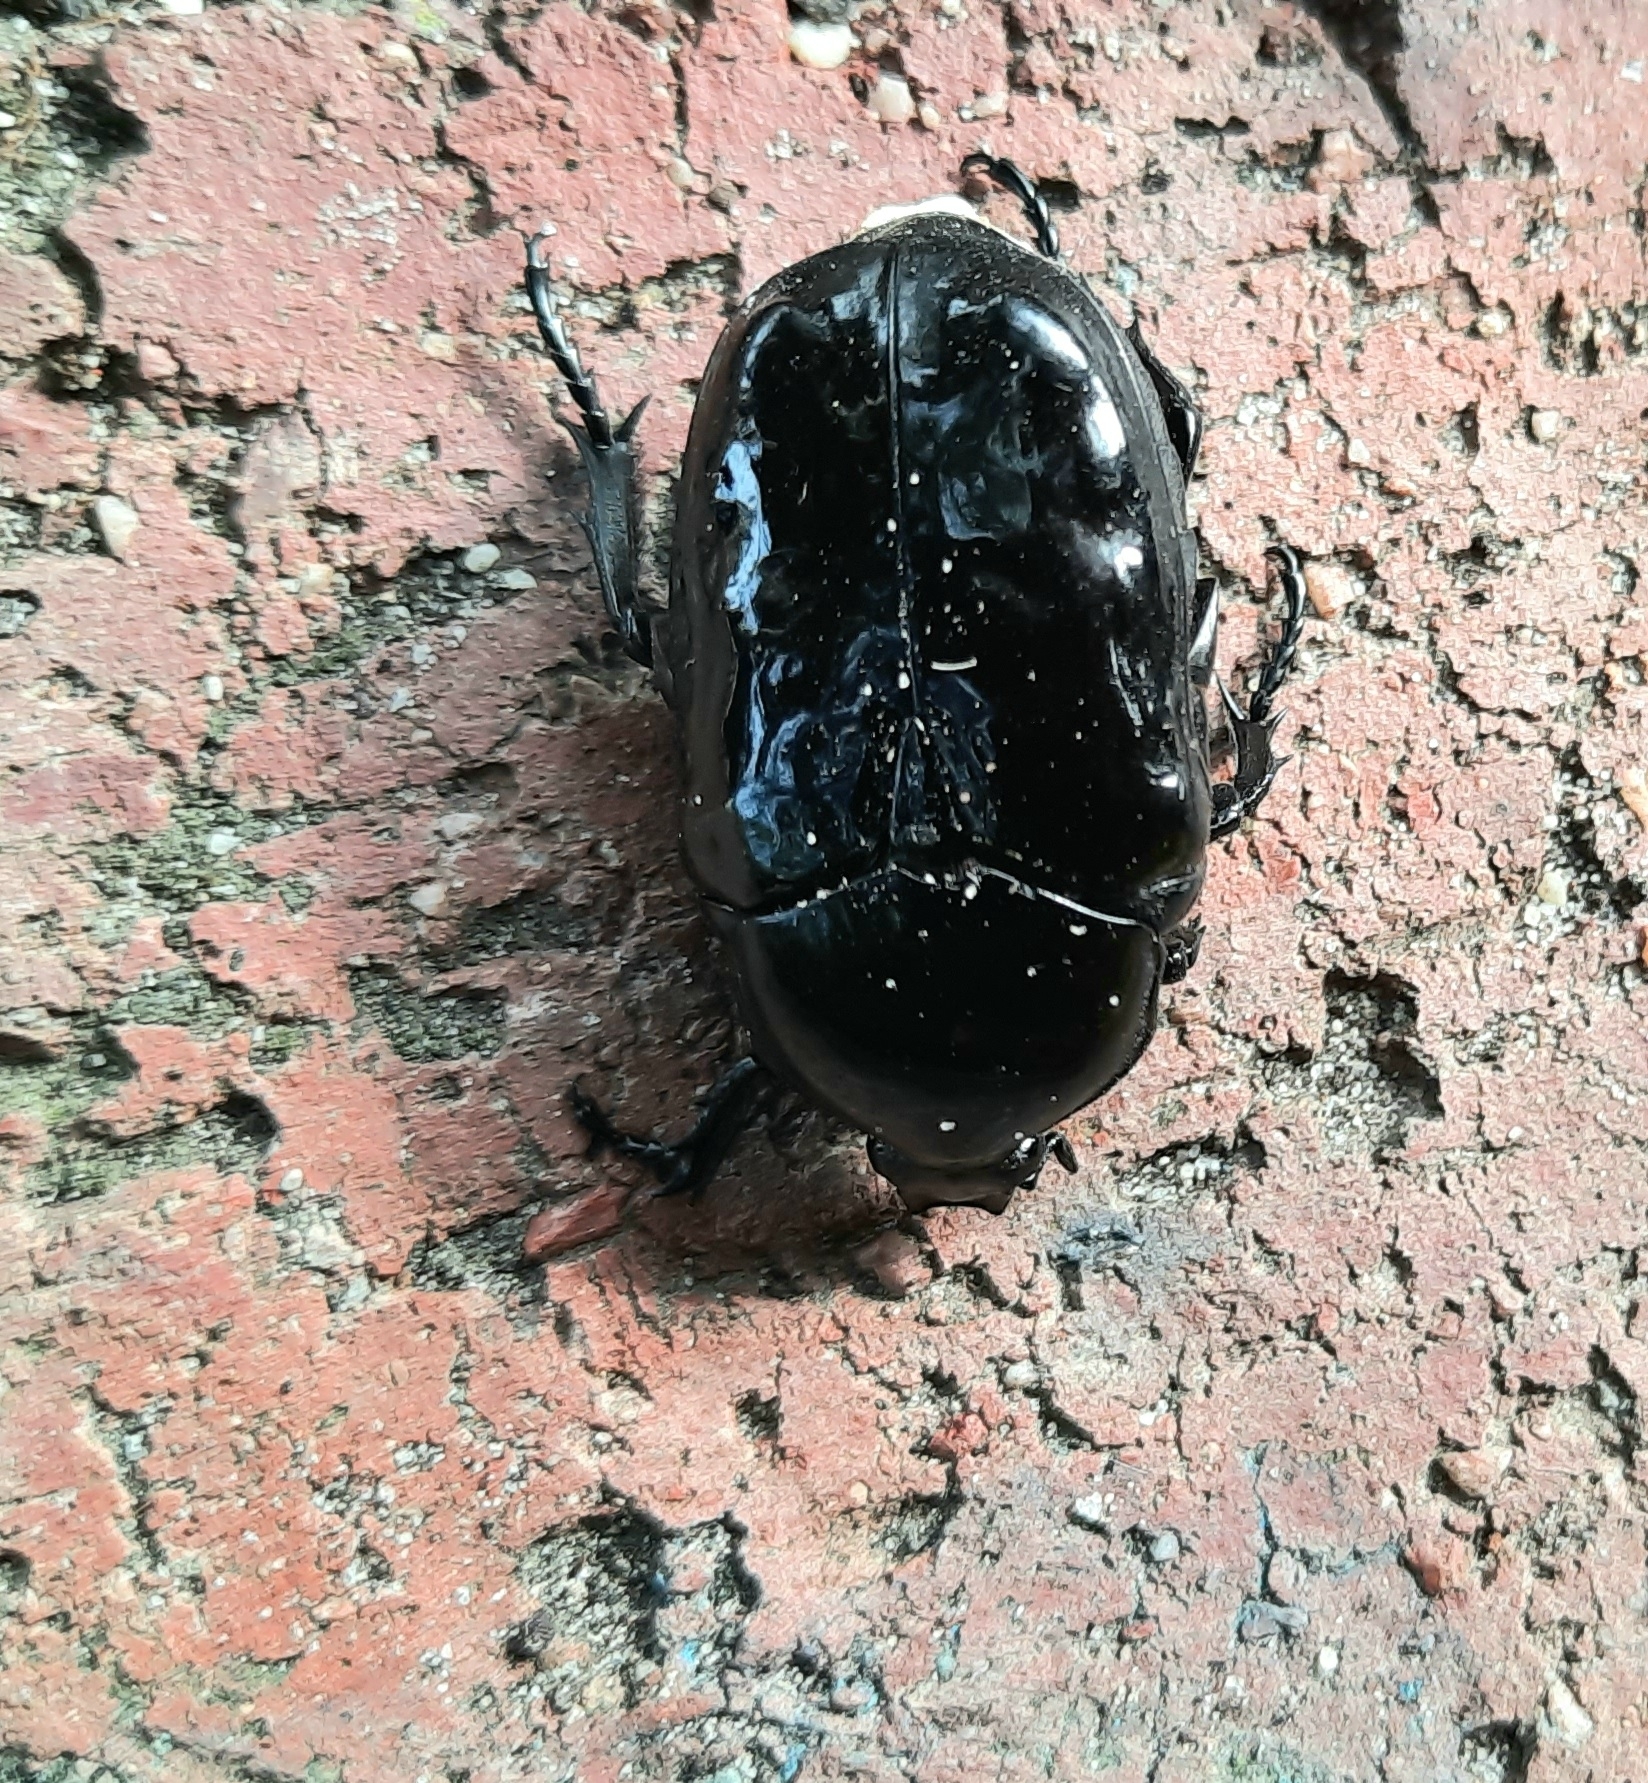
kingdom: Animalia
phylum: Arthropoda
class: Insecta
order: Coleoptera
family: Scarabaeidae
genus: Diplognatha
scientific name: Diplognatha gagates
